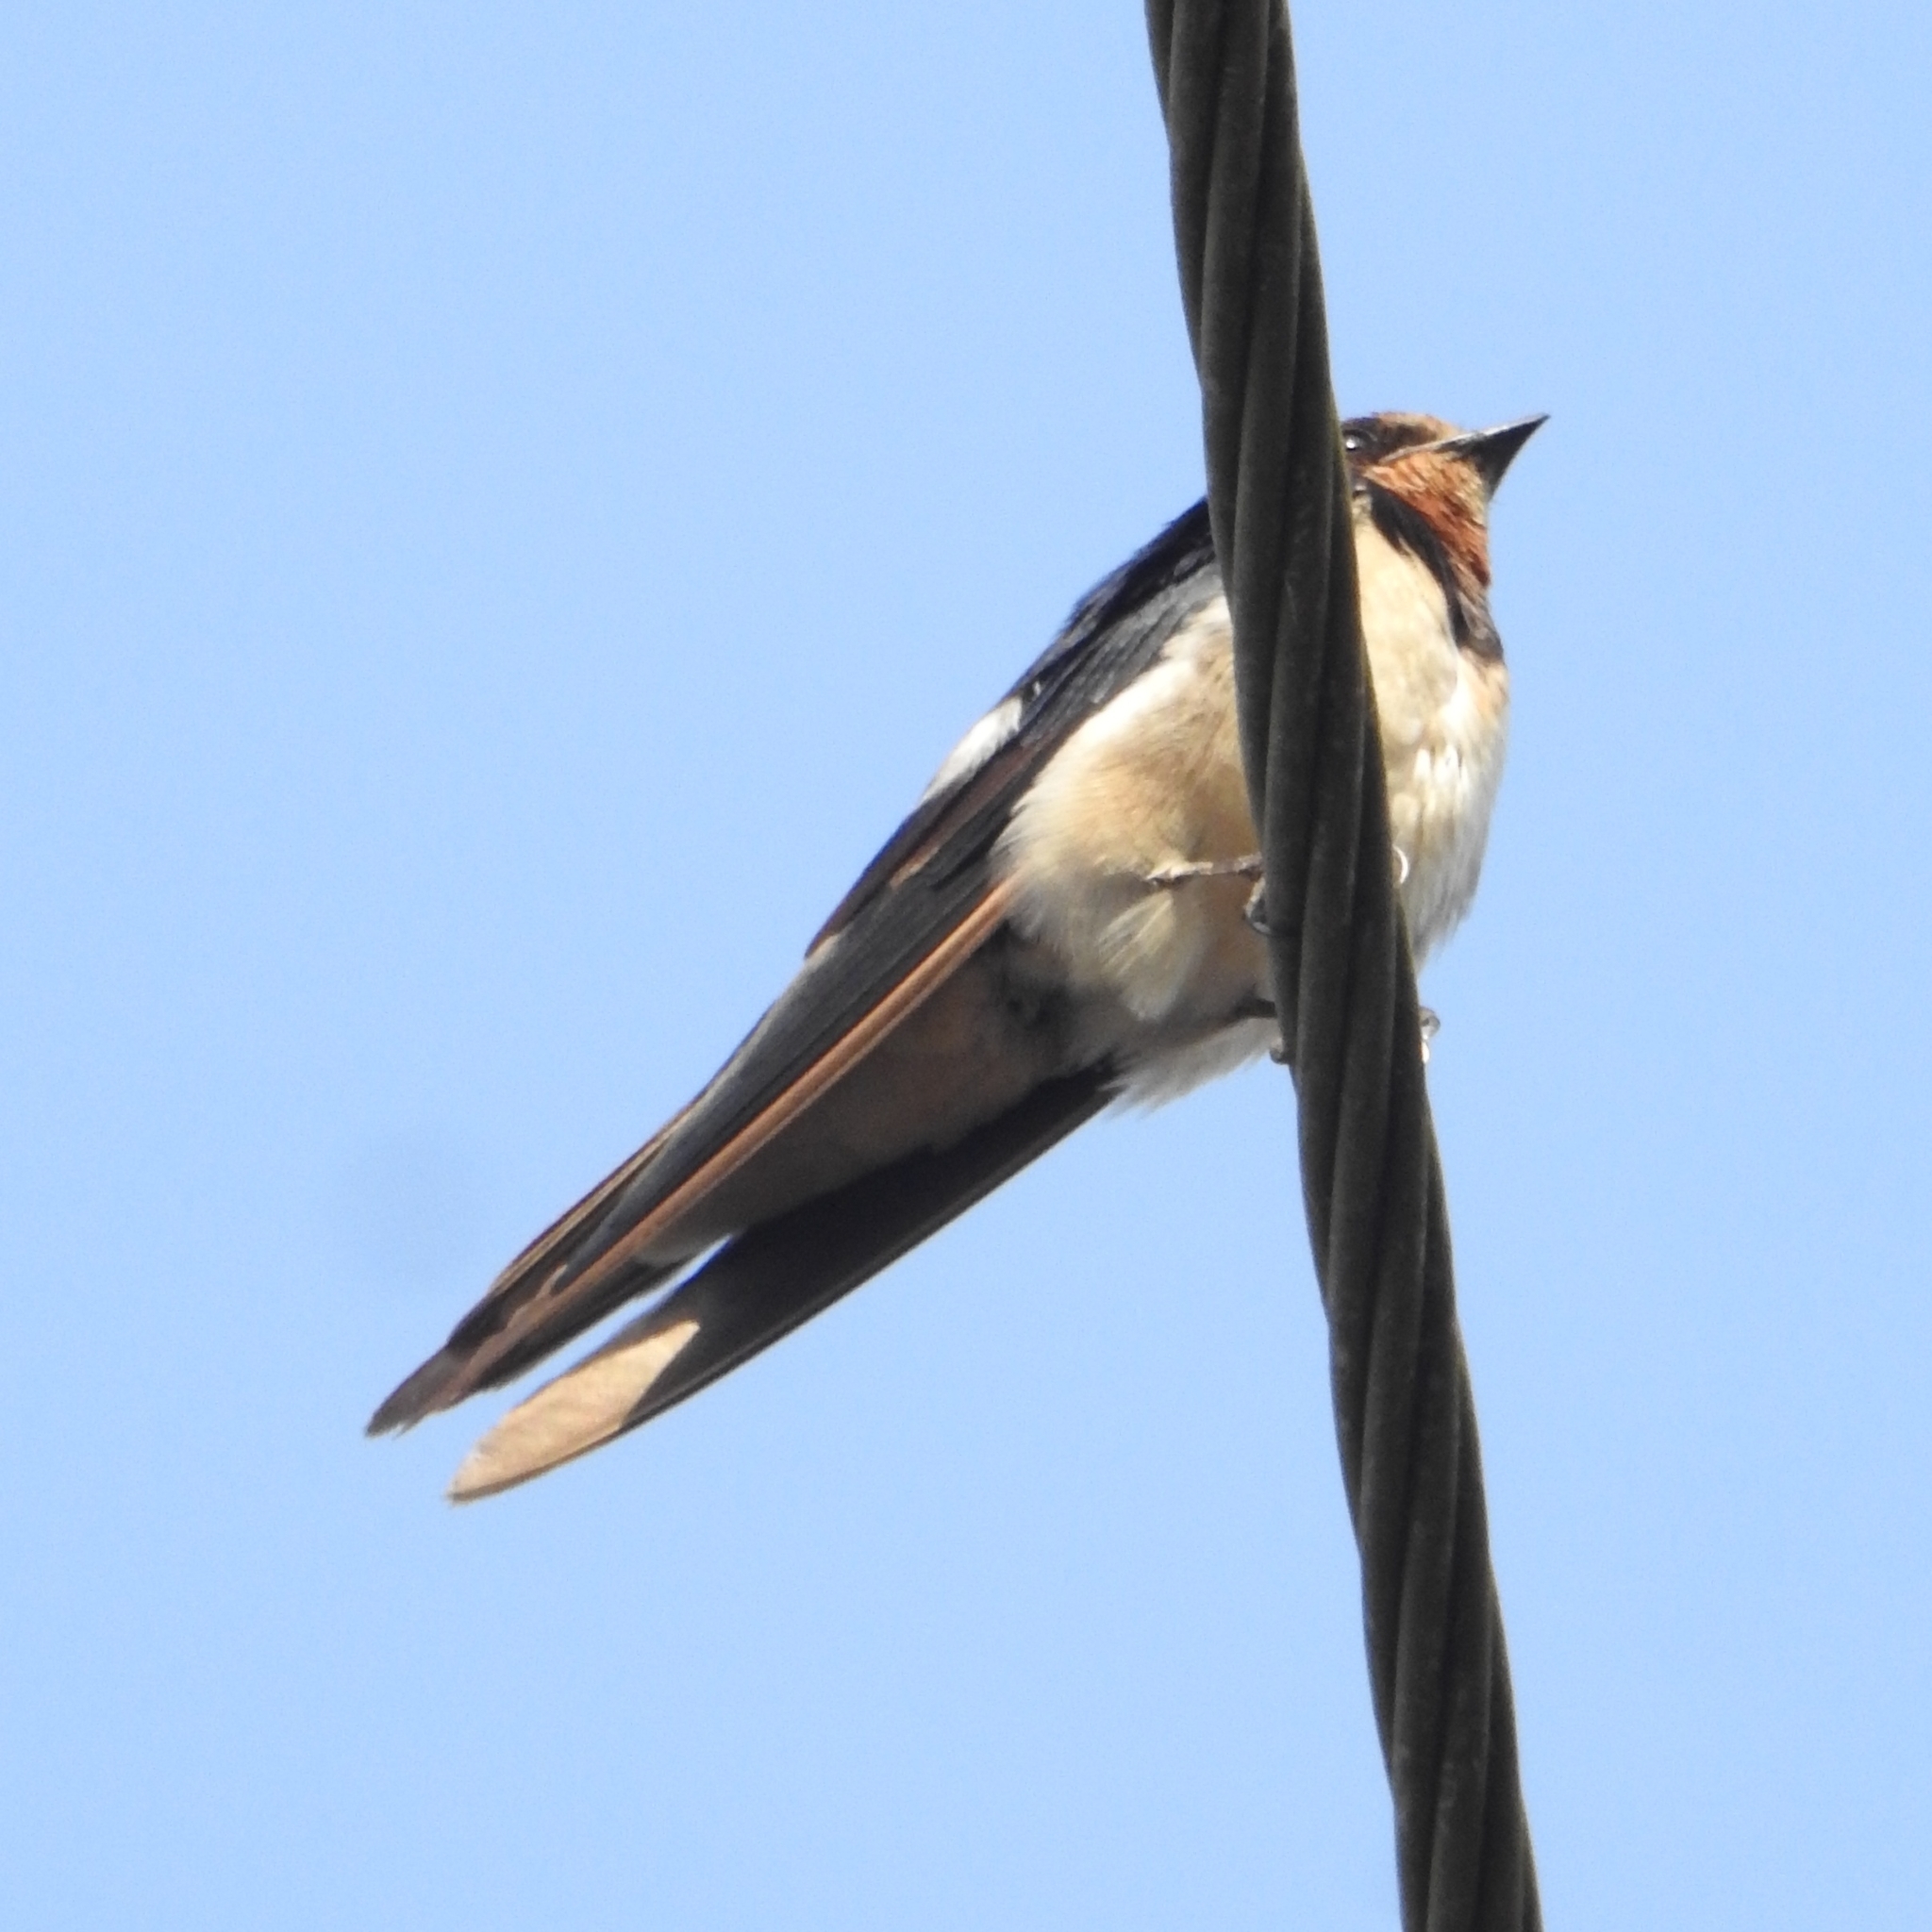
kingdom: Animalia
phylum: Chordata
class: Aves
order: Passeriformes
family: Hirundinidae
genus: Hirundo
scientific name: Hirundo rustica
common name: Barn swallow
